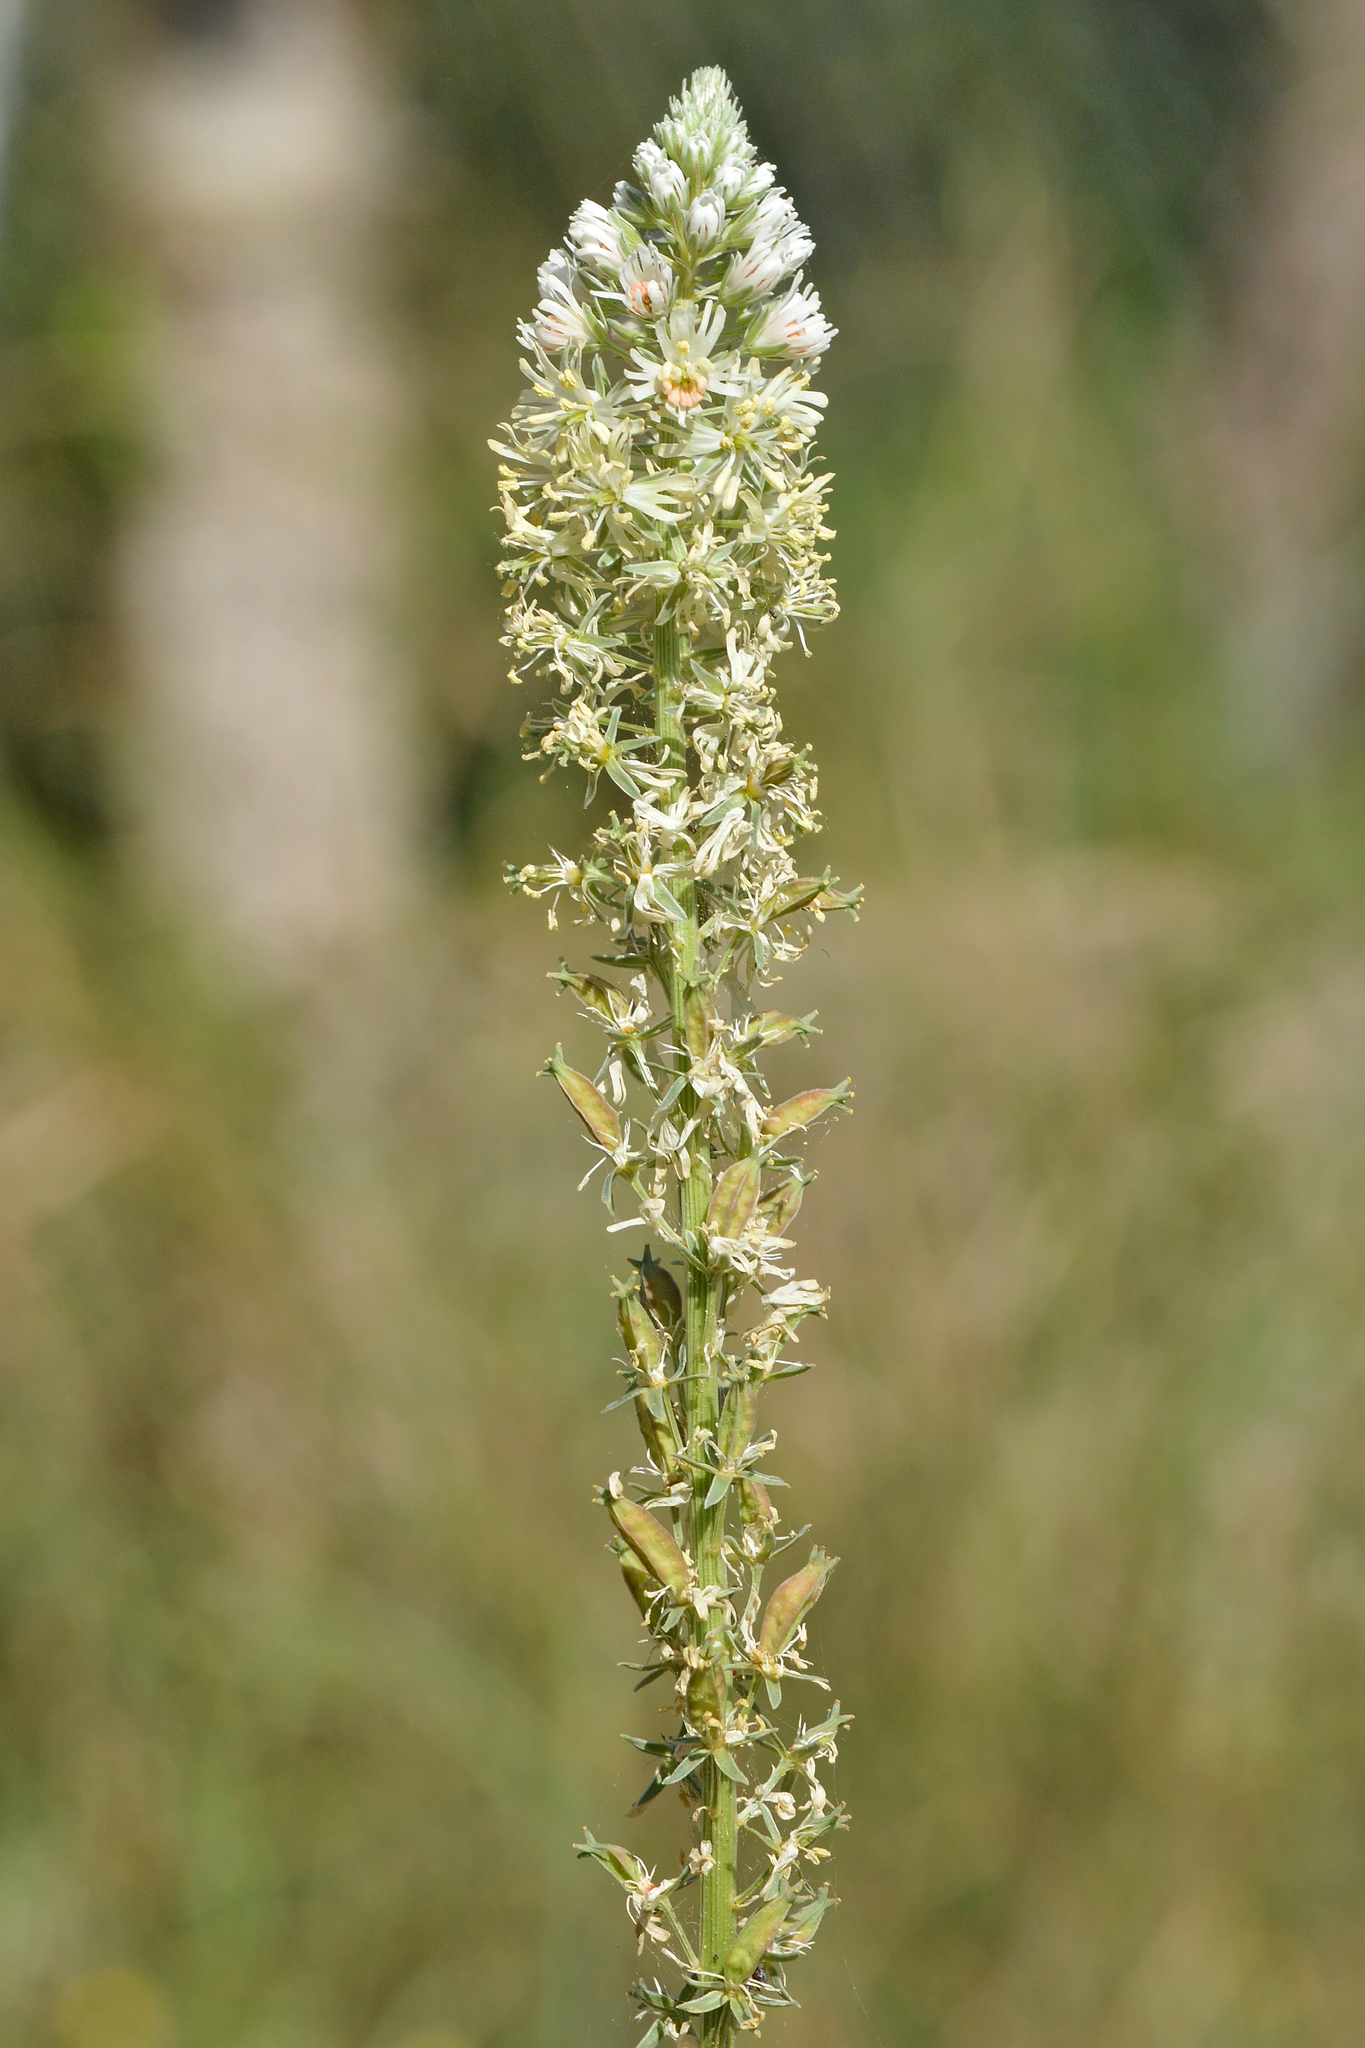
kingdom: Plantae
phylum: Tracheophyta
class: Magnoliopsida
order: Brassicales
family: Resedaceae
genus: Reseda
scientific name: Reseda alba
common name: White mignonette
